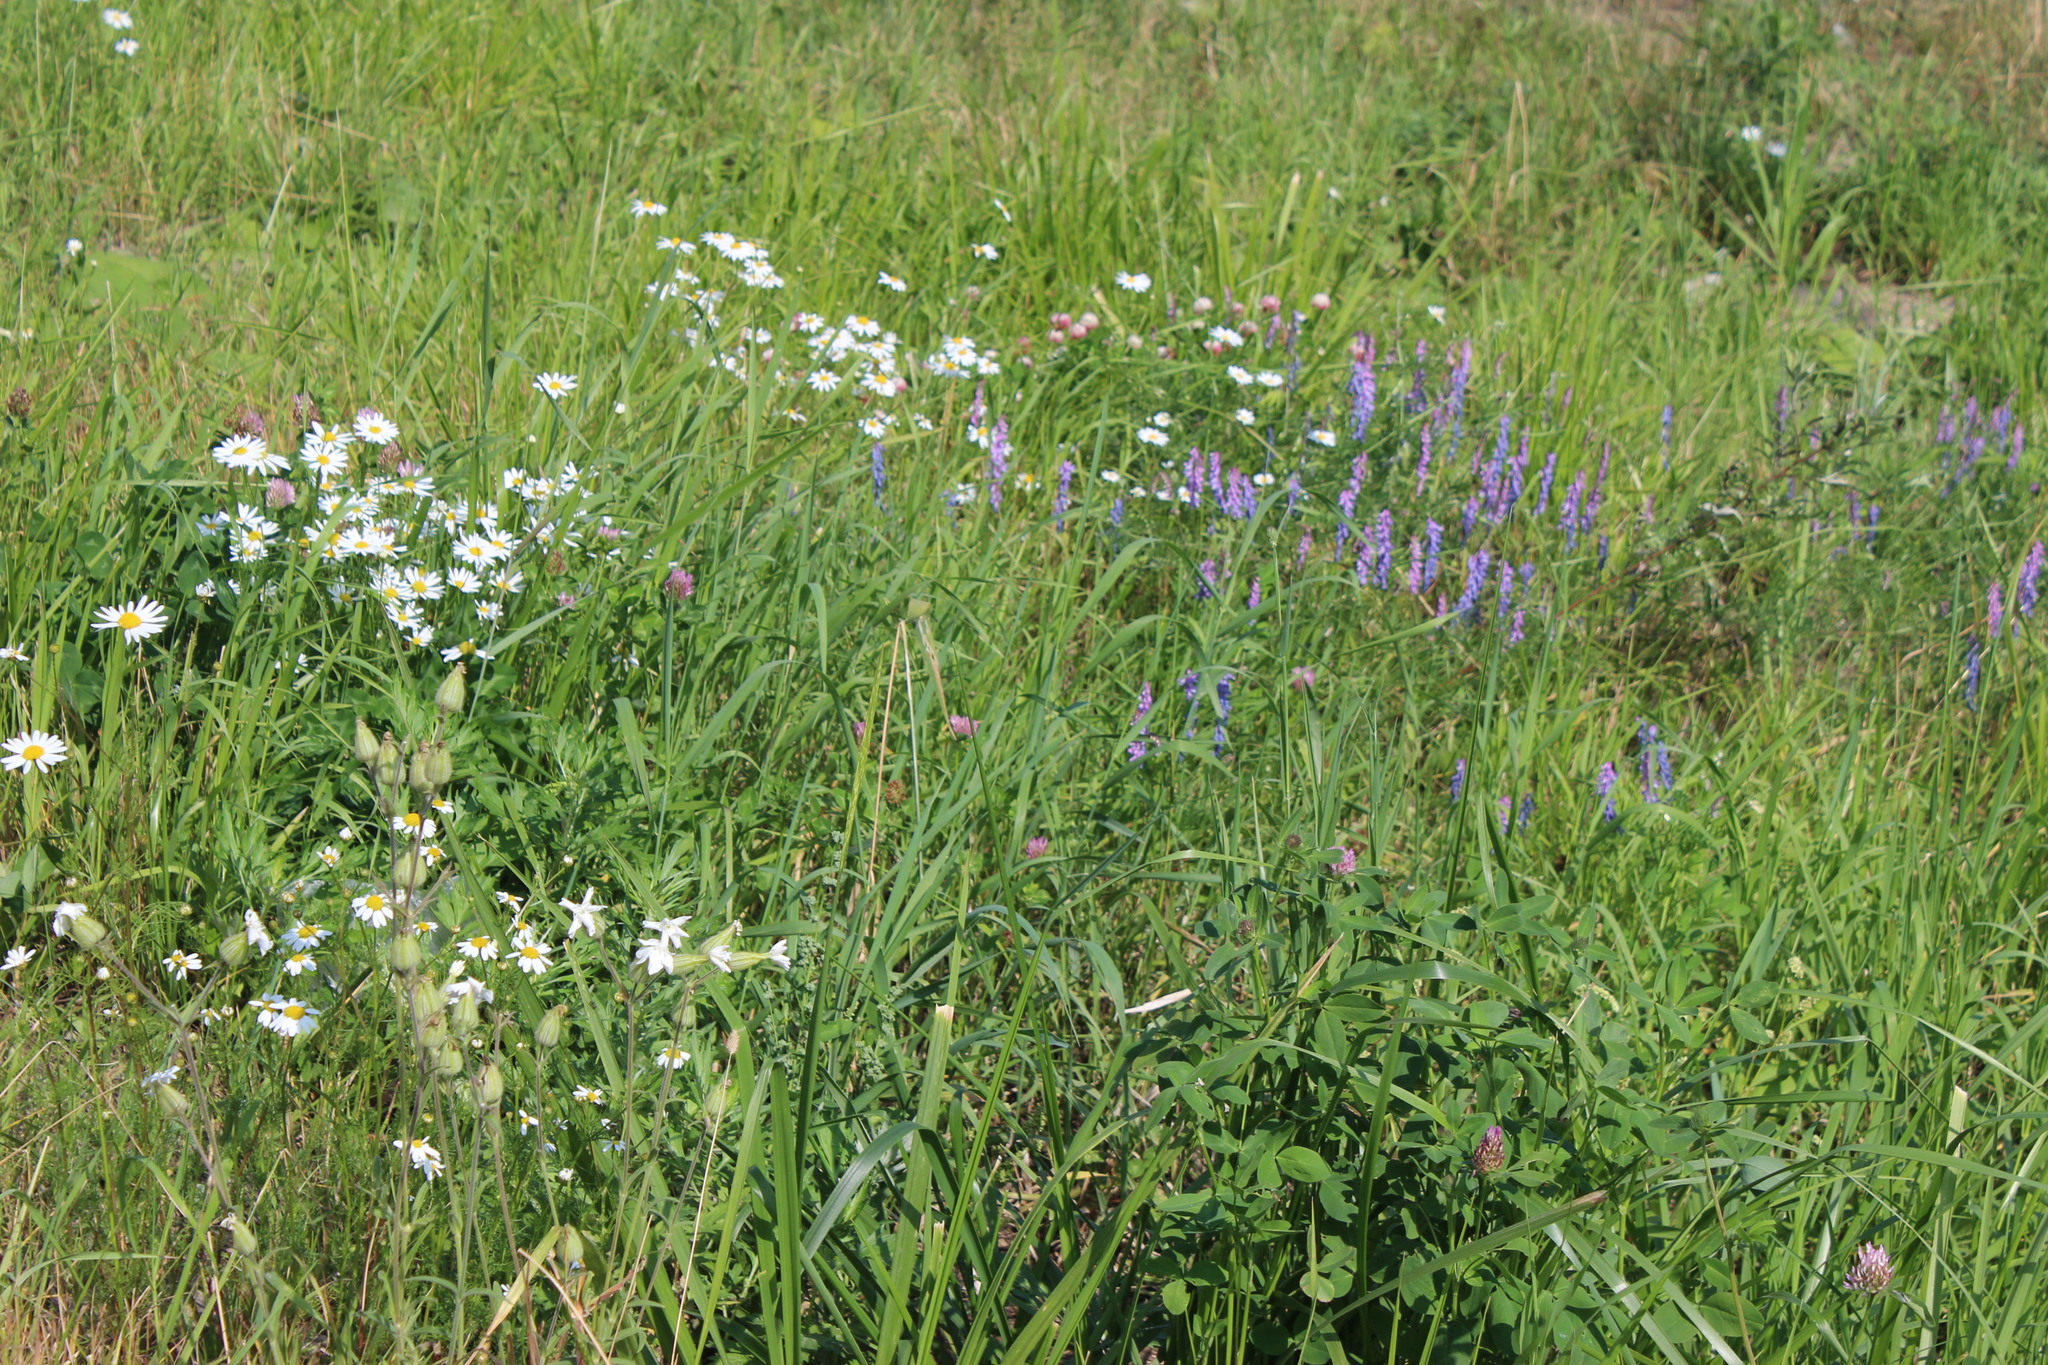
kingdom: Plantae
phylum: Tracheophyta
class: Magnoliopsida
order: Fabales
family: Fabaceae
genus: Vicia
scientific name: Vicia cracca
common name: Bird vetch
